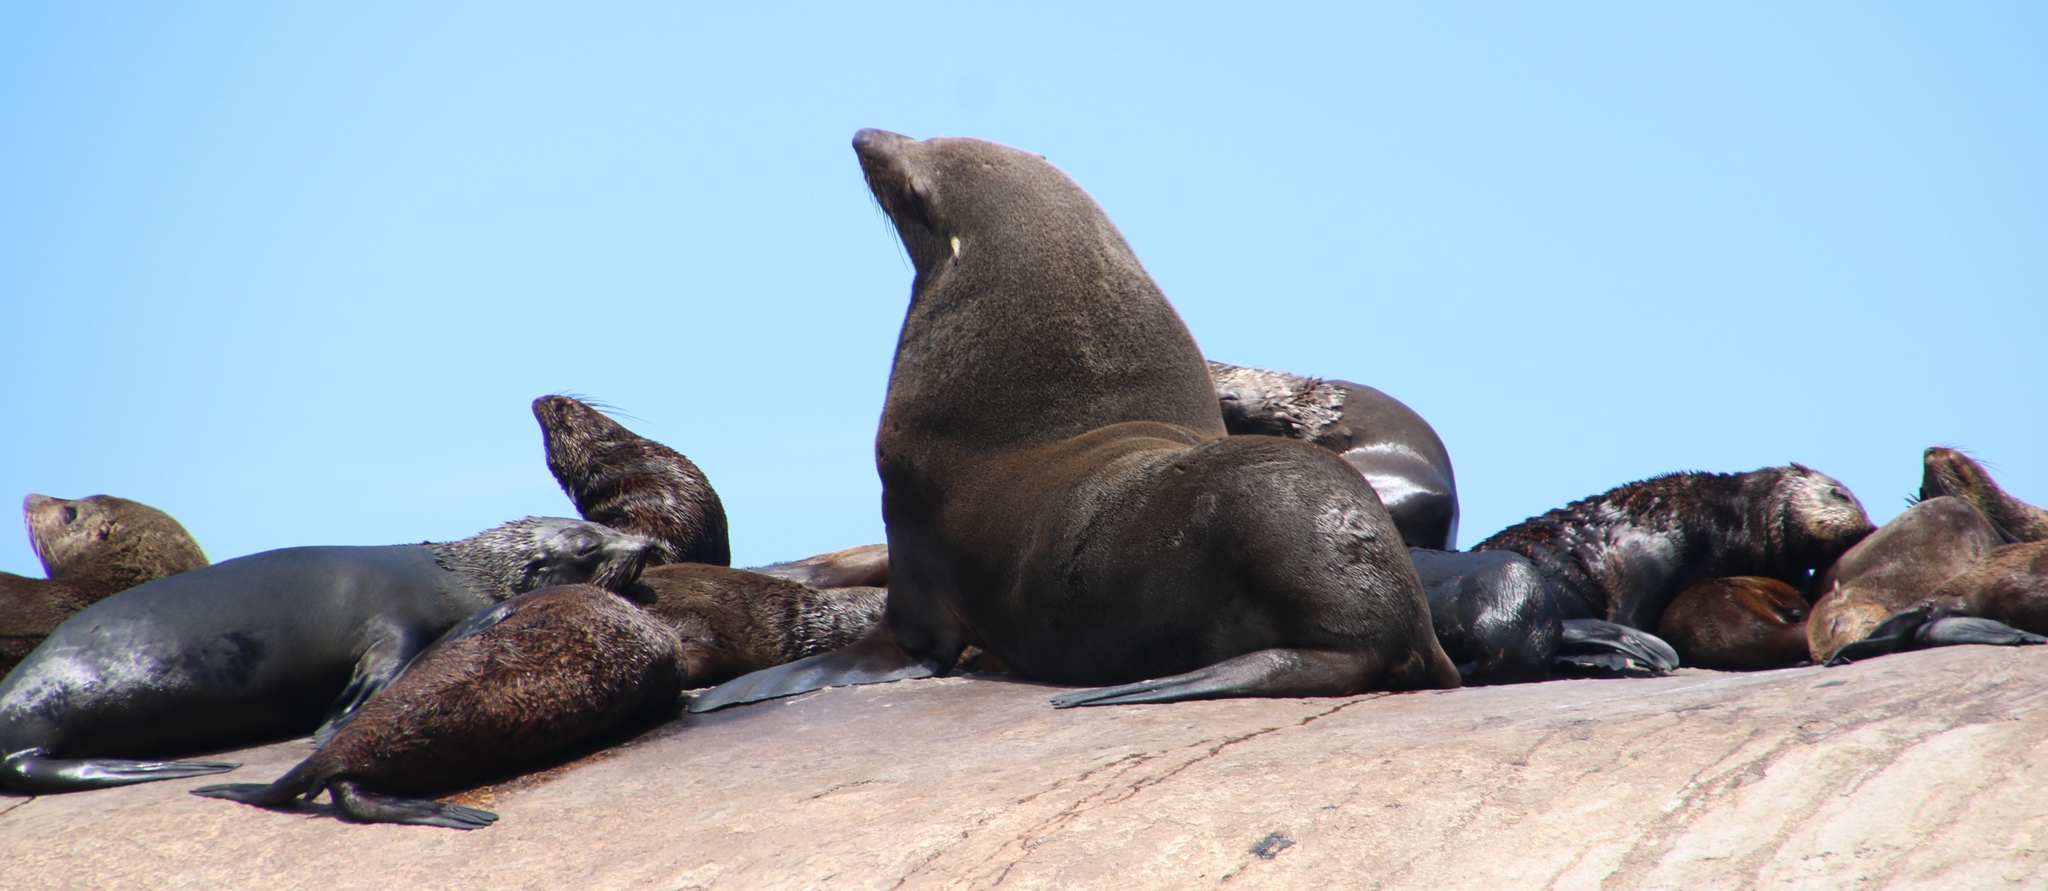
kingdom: Animalia
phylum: Chordata
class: Mammalia
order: Carnivora
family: Otariidae
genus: Arctocephalus
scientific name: Arctocephalus pusillus
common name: Brown fur seal
